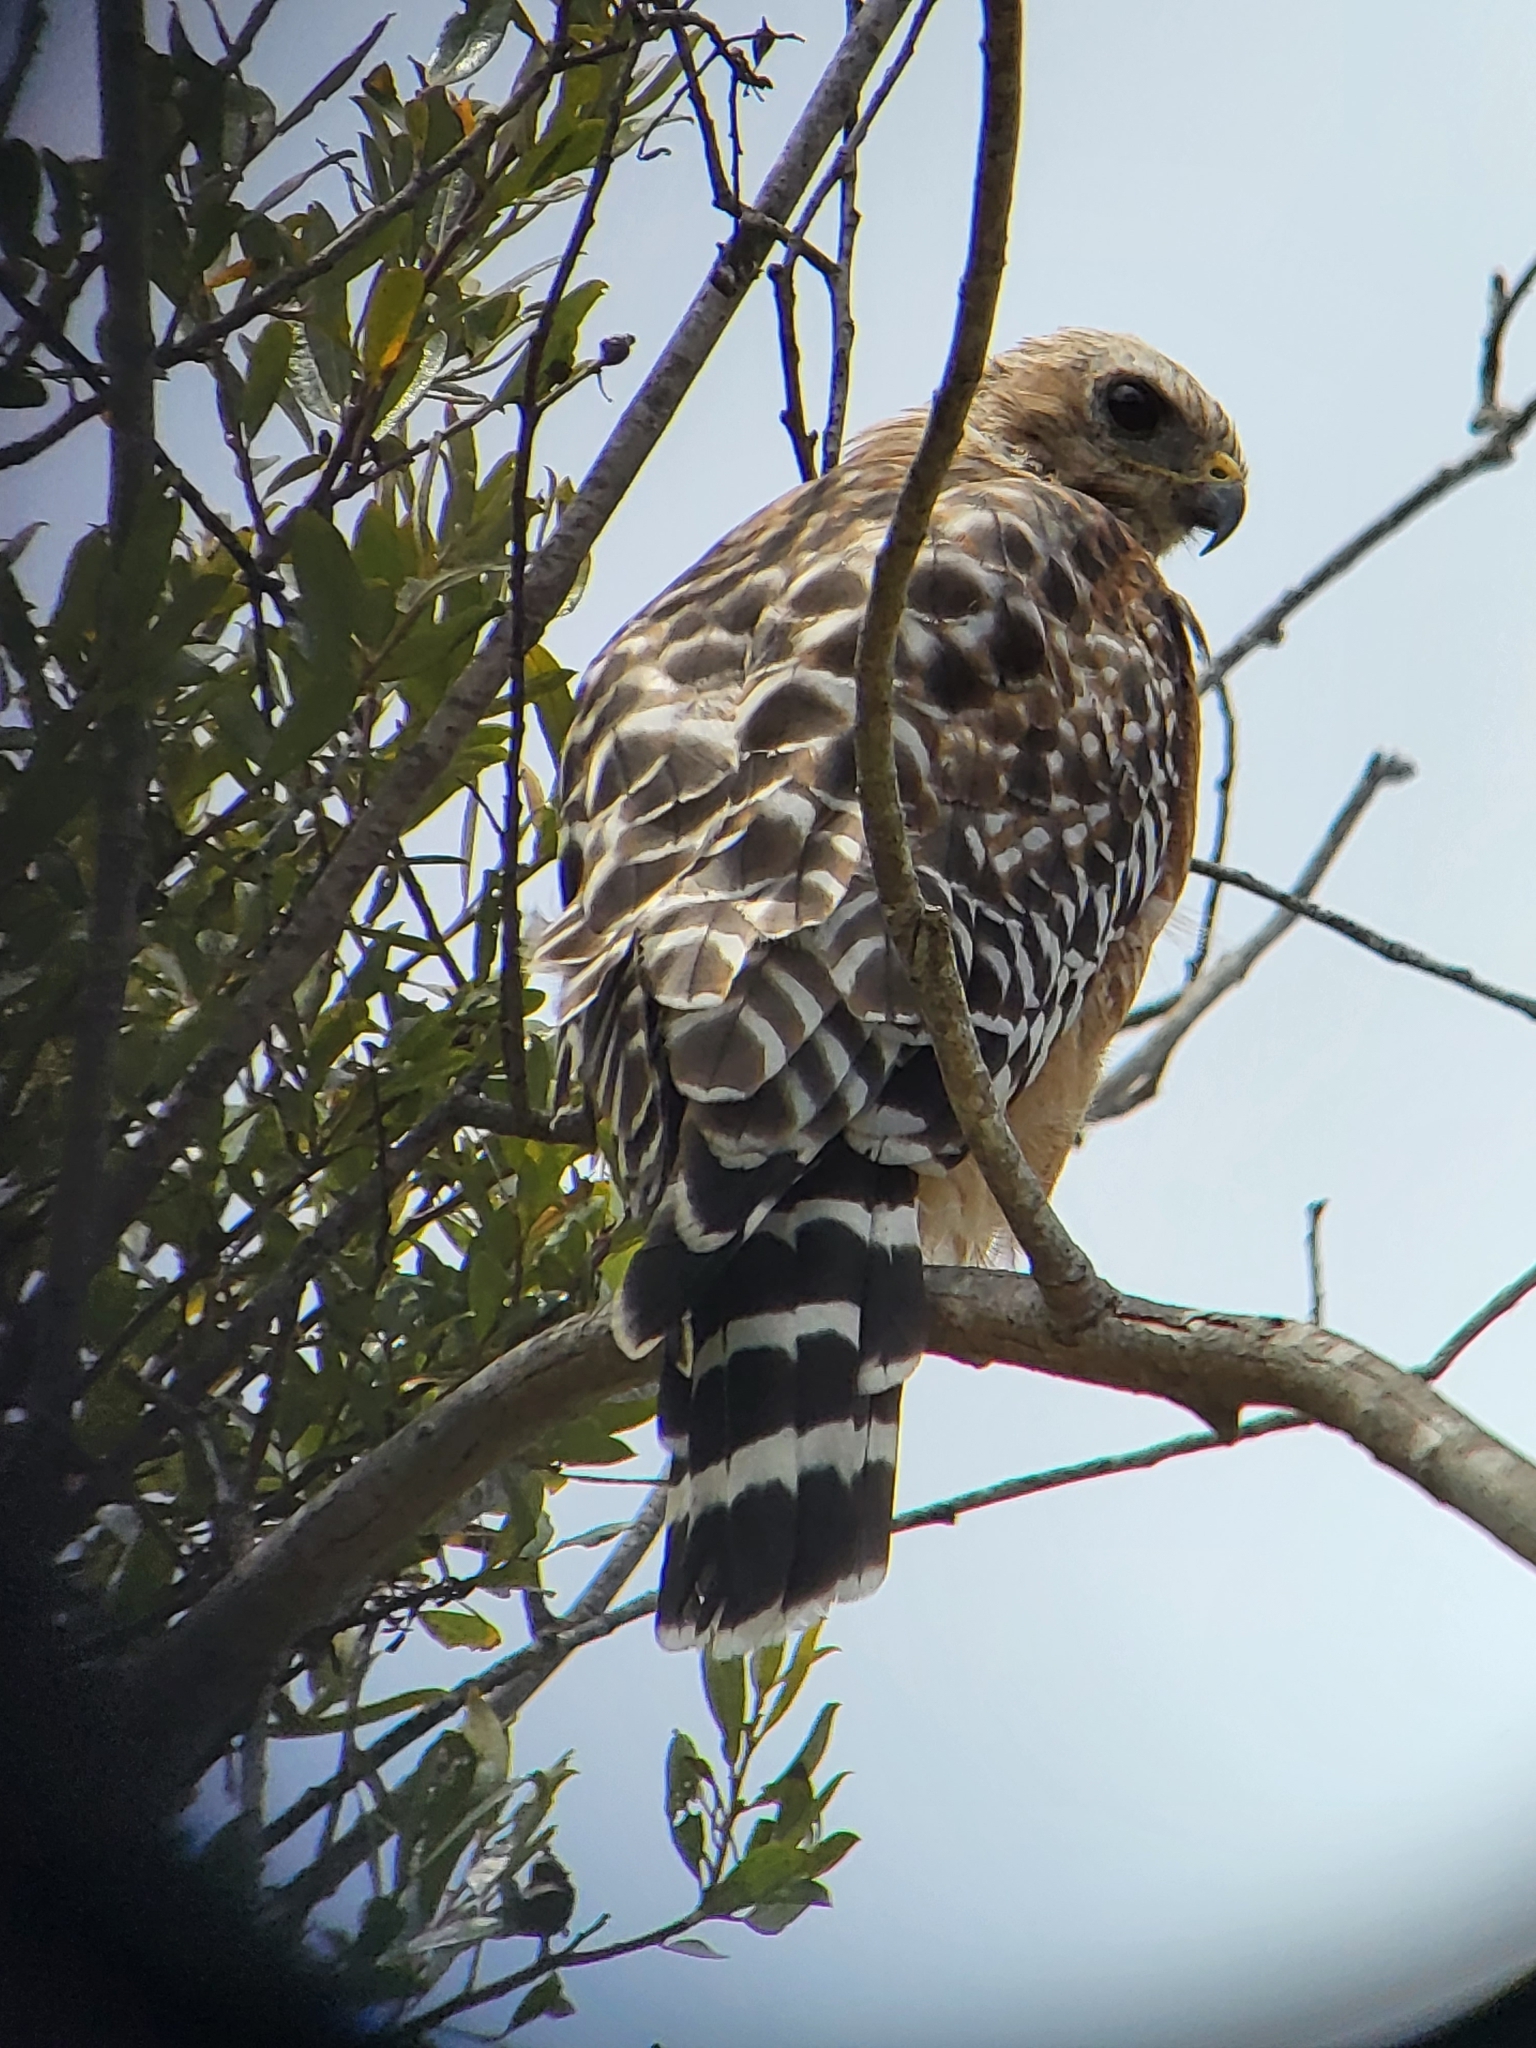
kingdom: Animalia
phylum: Chordata
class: Aves
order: Accipitriformes
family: Accipitridae
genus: Buteo
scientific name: Buteo lineatus
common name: Red-shouldered hawk
